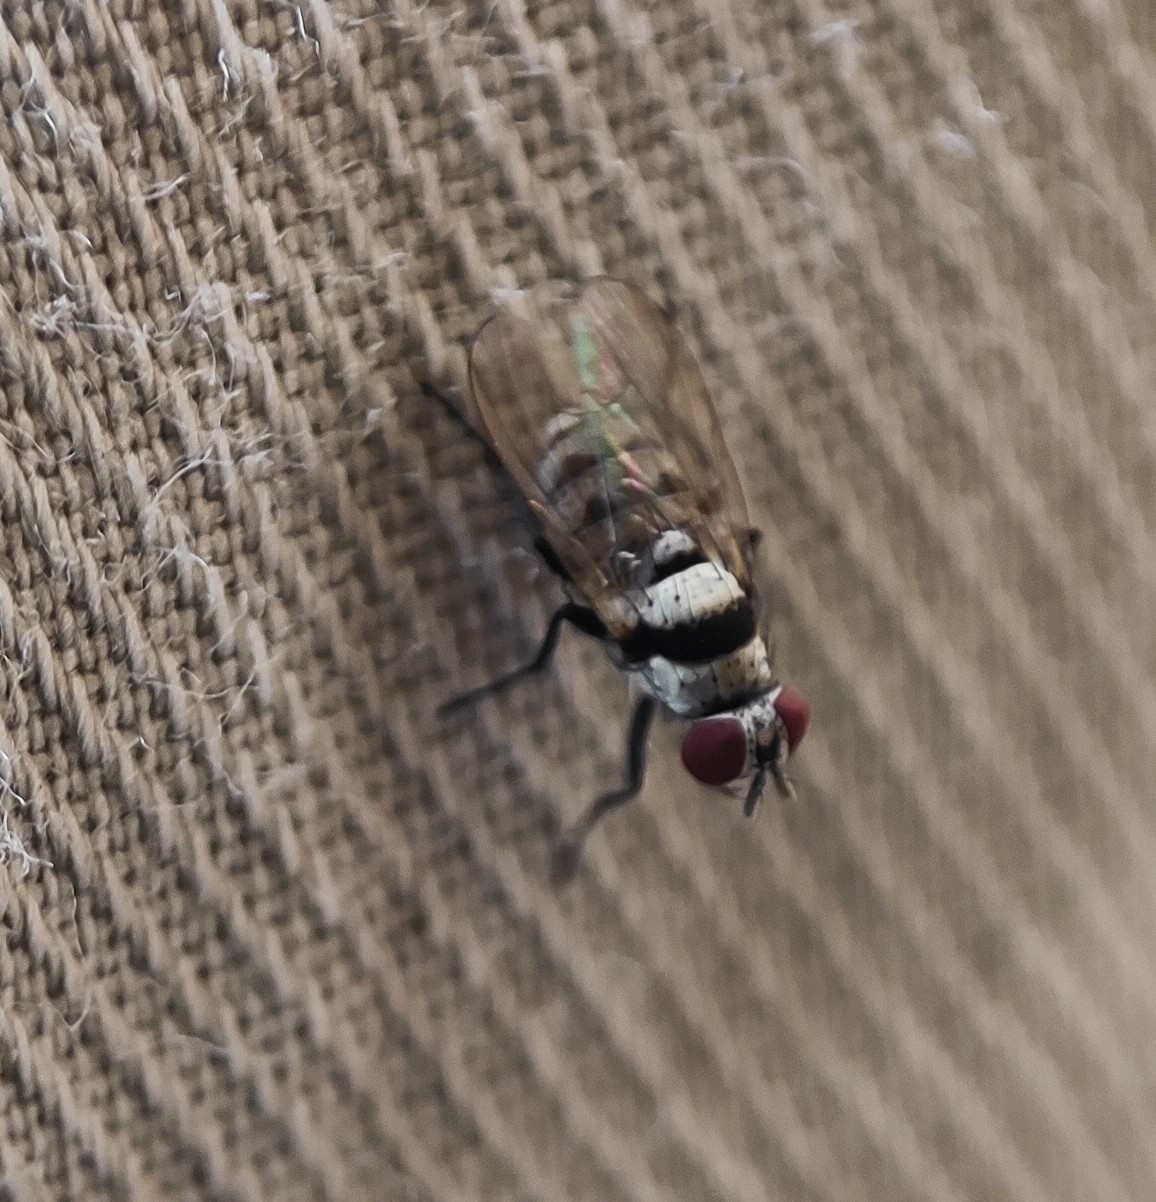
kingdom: Animalia
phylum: Arthropoda
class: Insecta
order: Diptera
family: Anthomyiidae
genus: Anthomyia
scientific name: Anthomyia illocata
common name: Fly
